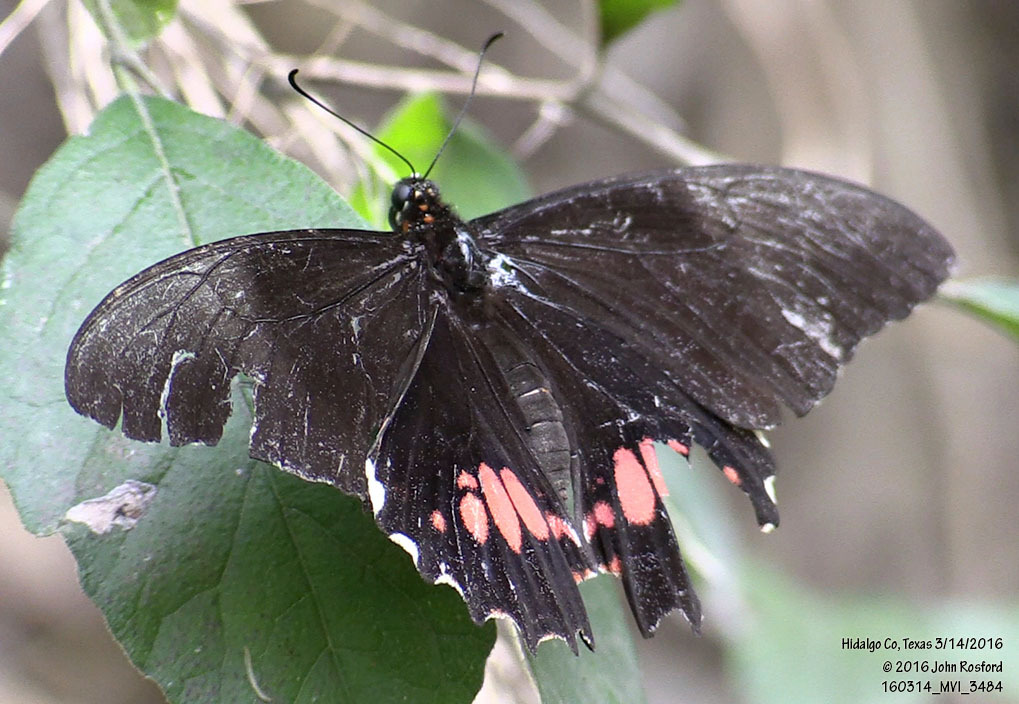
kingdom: Animalia
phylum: Arthropoda
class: Insecta
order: Lepidoptera
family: Papilionidae
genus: Papilio
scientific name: Papilio anchisiades
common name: Idaes swallowtail
